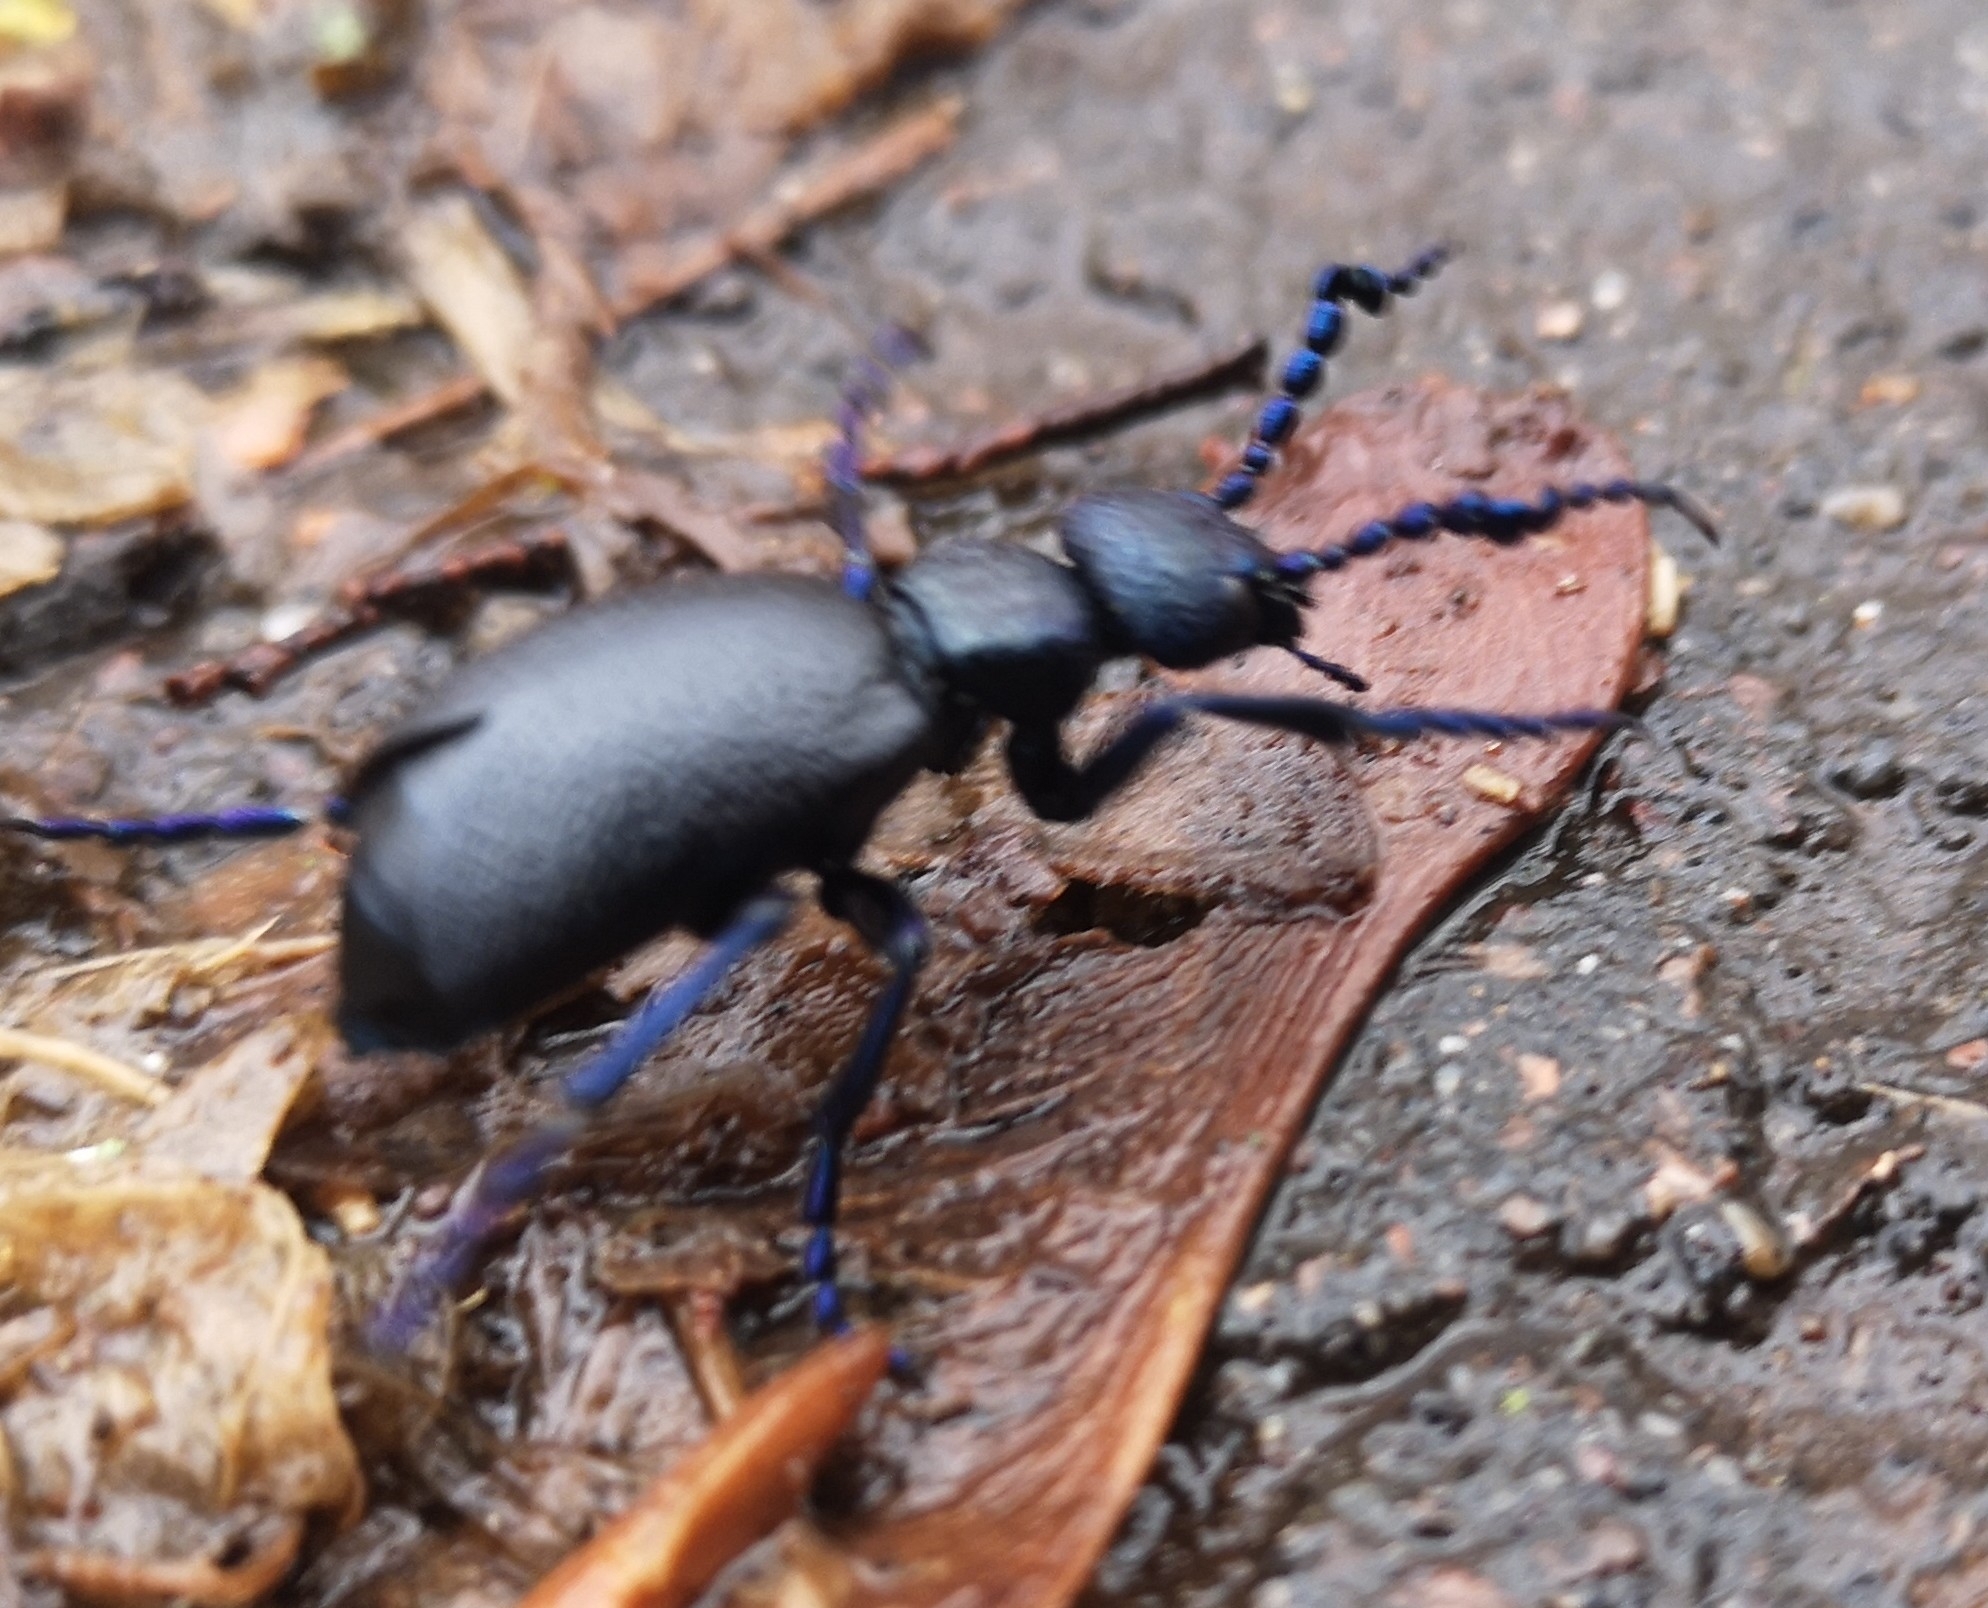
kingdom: Animalia
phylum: Arthropoda
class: Insecta
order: Coleoptera
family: Meloidae
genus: Meloe
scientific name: Meloe proscarabaeus
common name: Black oil-beetle
